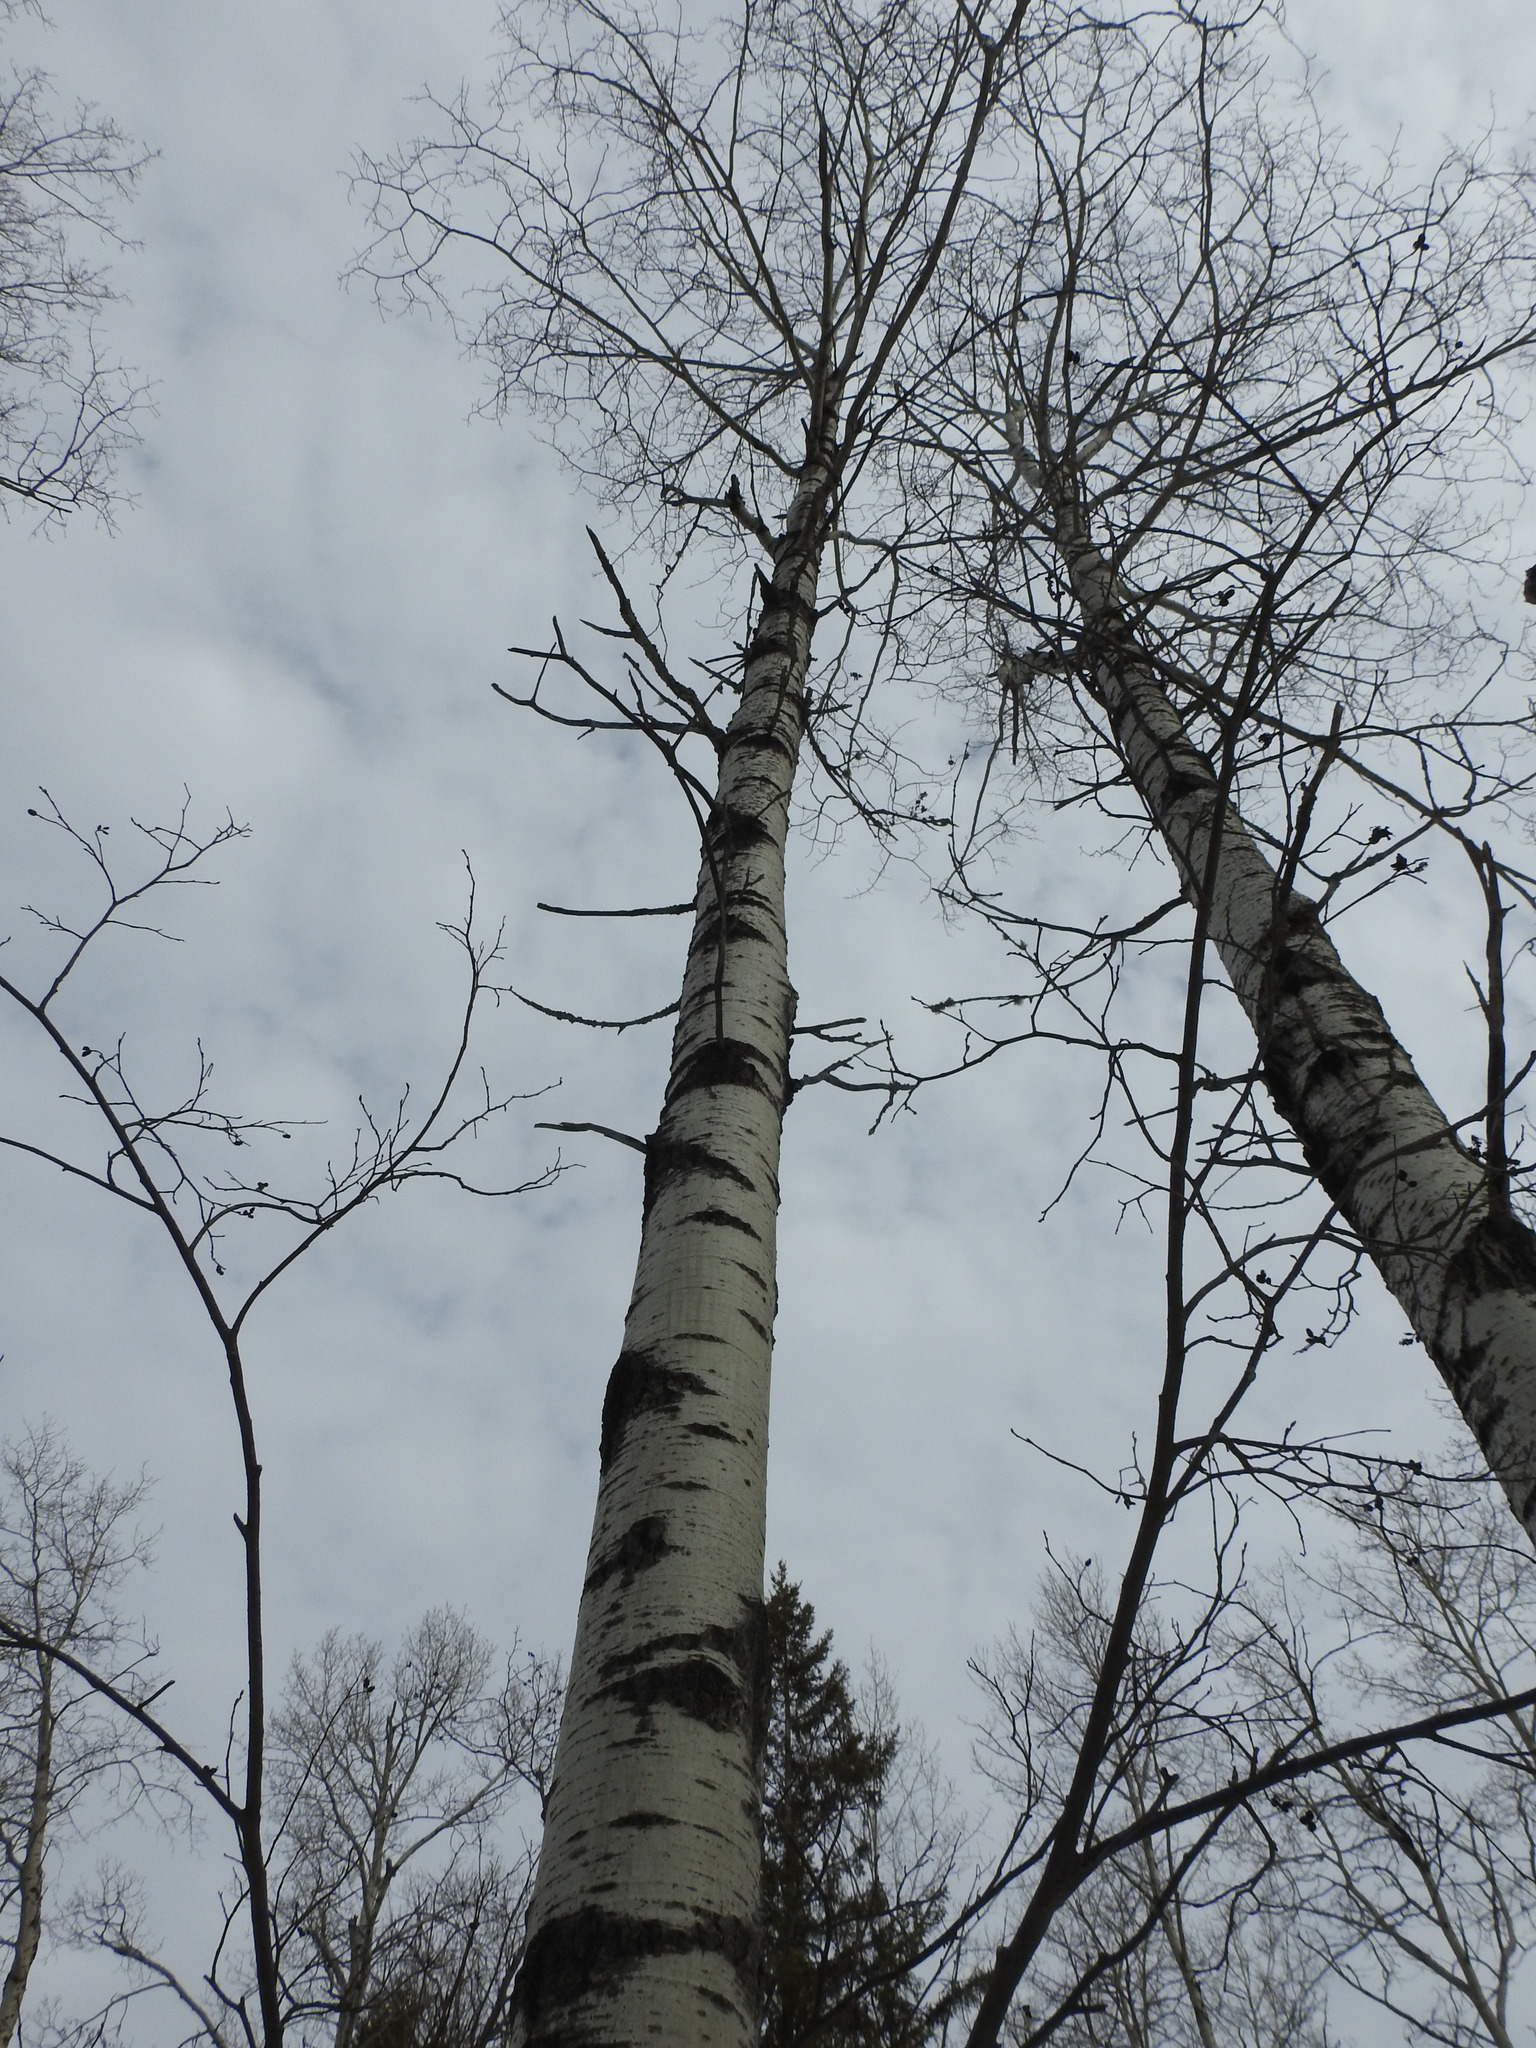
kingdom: Plantae
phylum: Tracheophyta
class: Magnoliopsida
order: Malpighiales
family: Salicaceae
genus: Populus
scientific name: Populus tremuloides
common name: Quaking aspen
